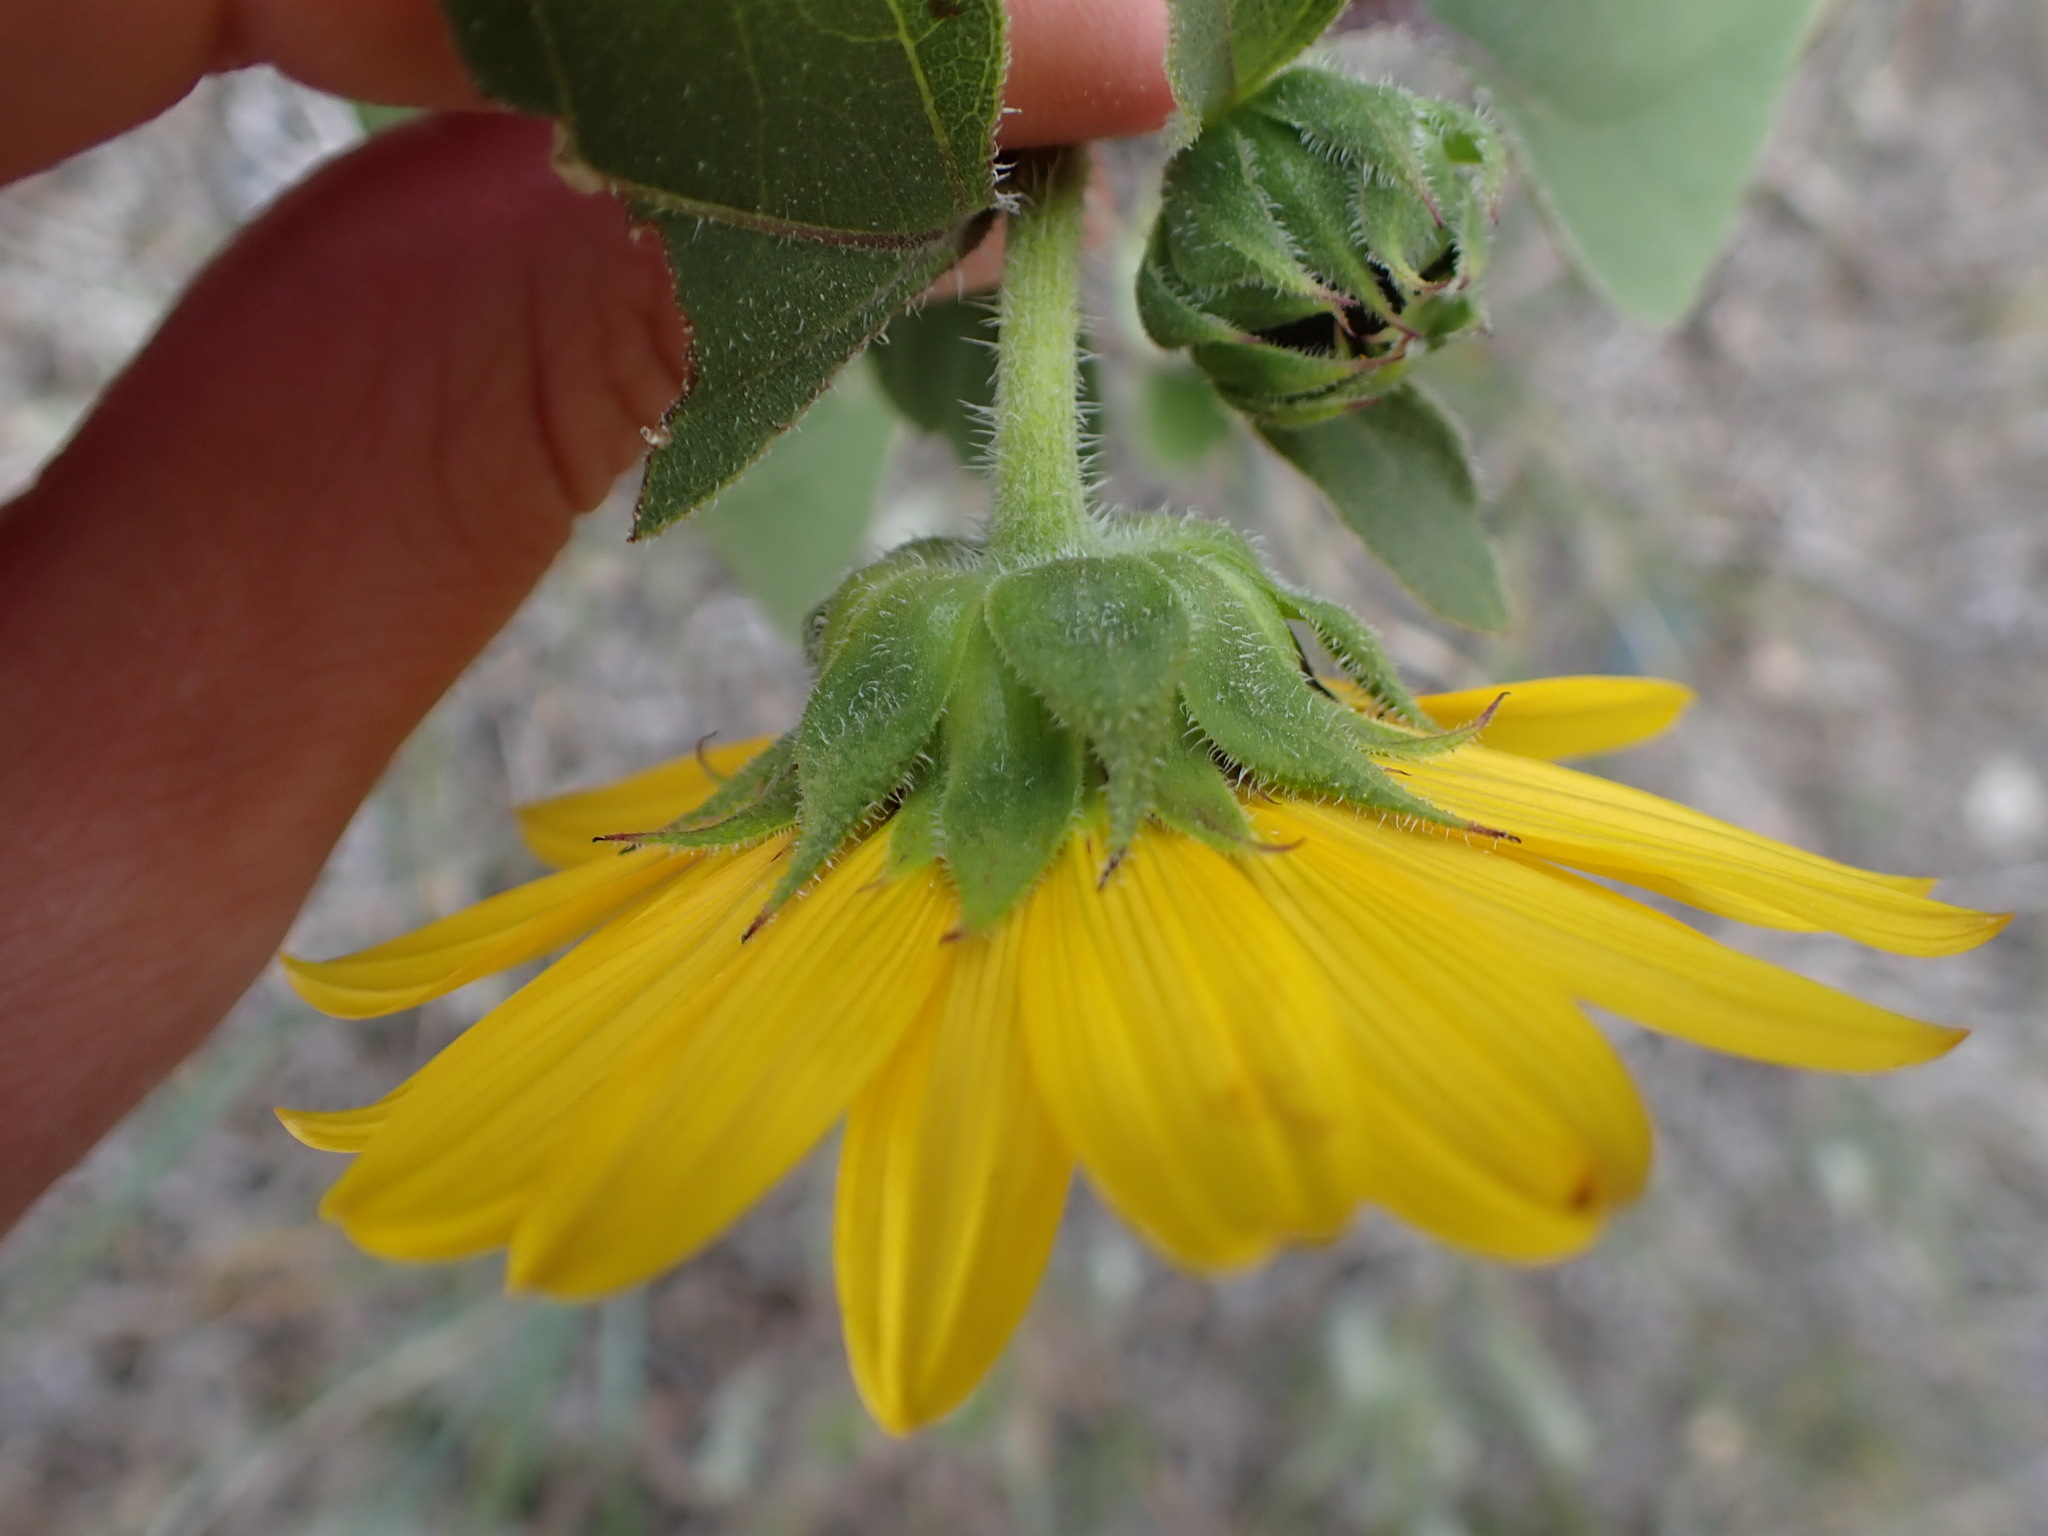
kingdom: Plantae
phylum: Tracheophyta
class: Magnoliopsida
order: Asterales
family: Asteraceae
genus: Helianthus
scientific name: Helianthus annuus
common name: Sunflower
